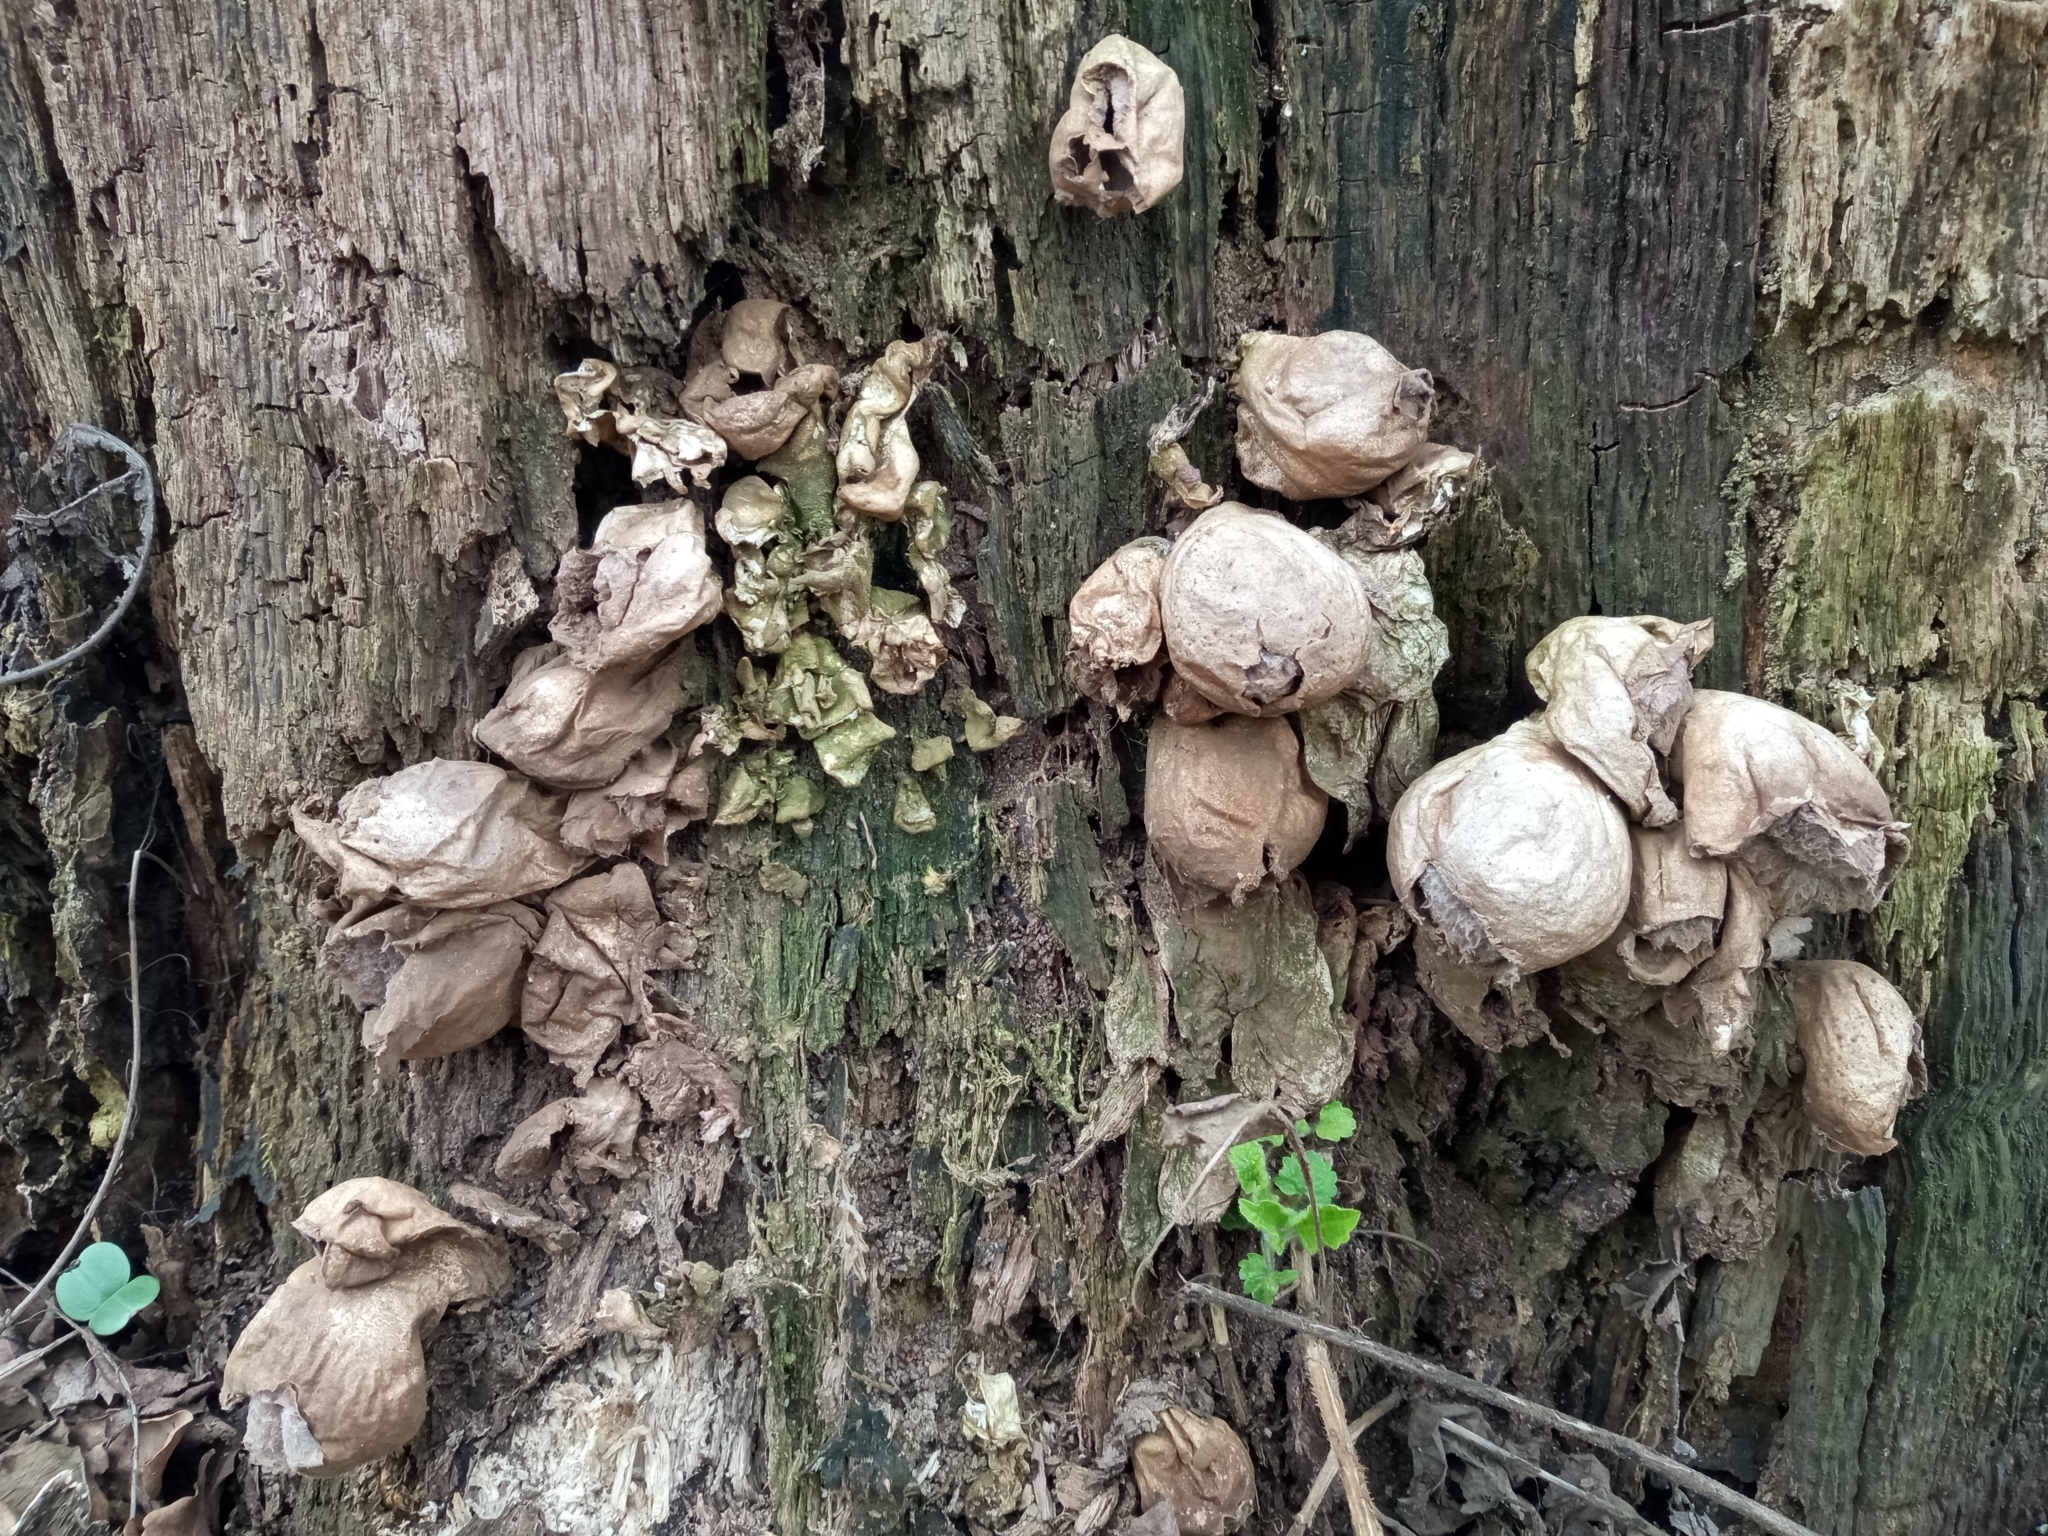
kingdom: Fungi
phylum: Basidiomycota
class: Agaricomycetes
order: Agaricales
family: Lycoperdaceae
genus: Apioperdon
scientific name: Apioperdon pyriforme
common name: Pear-shaped puffball
